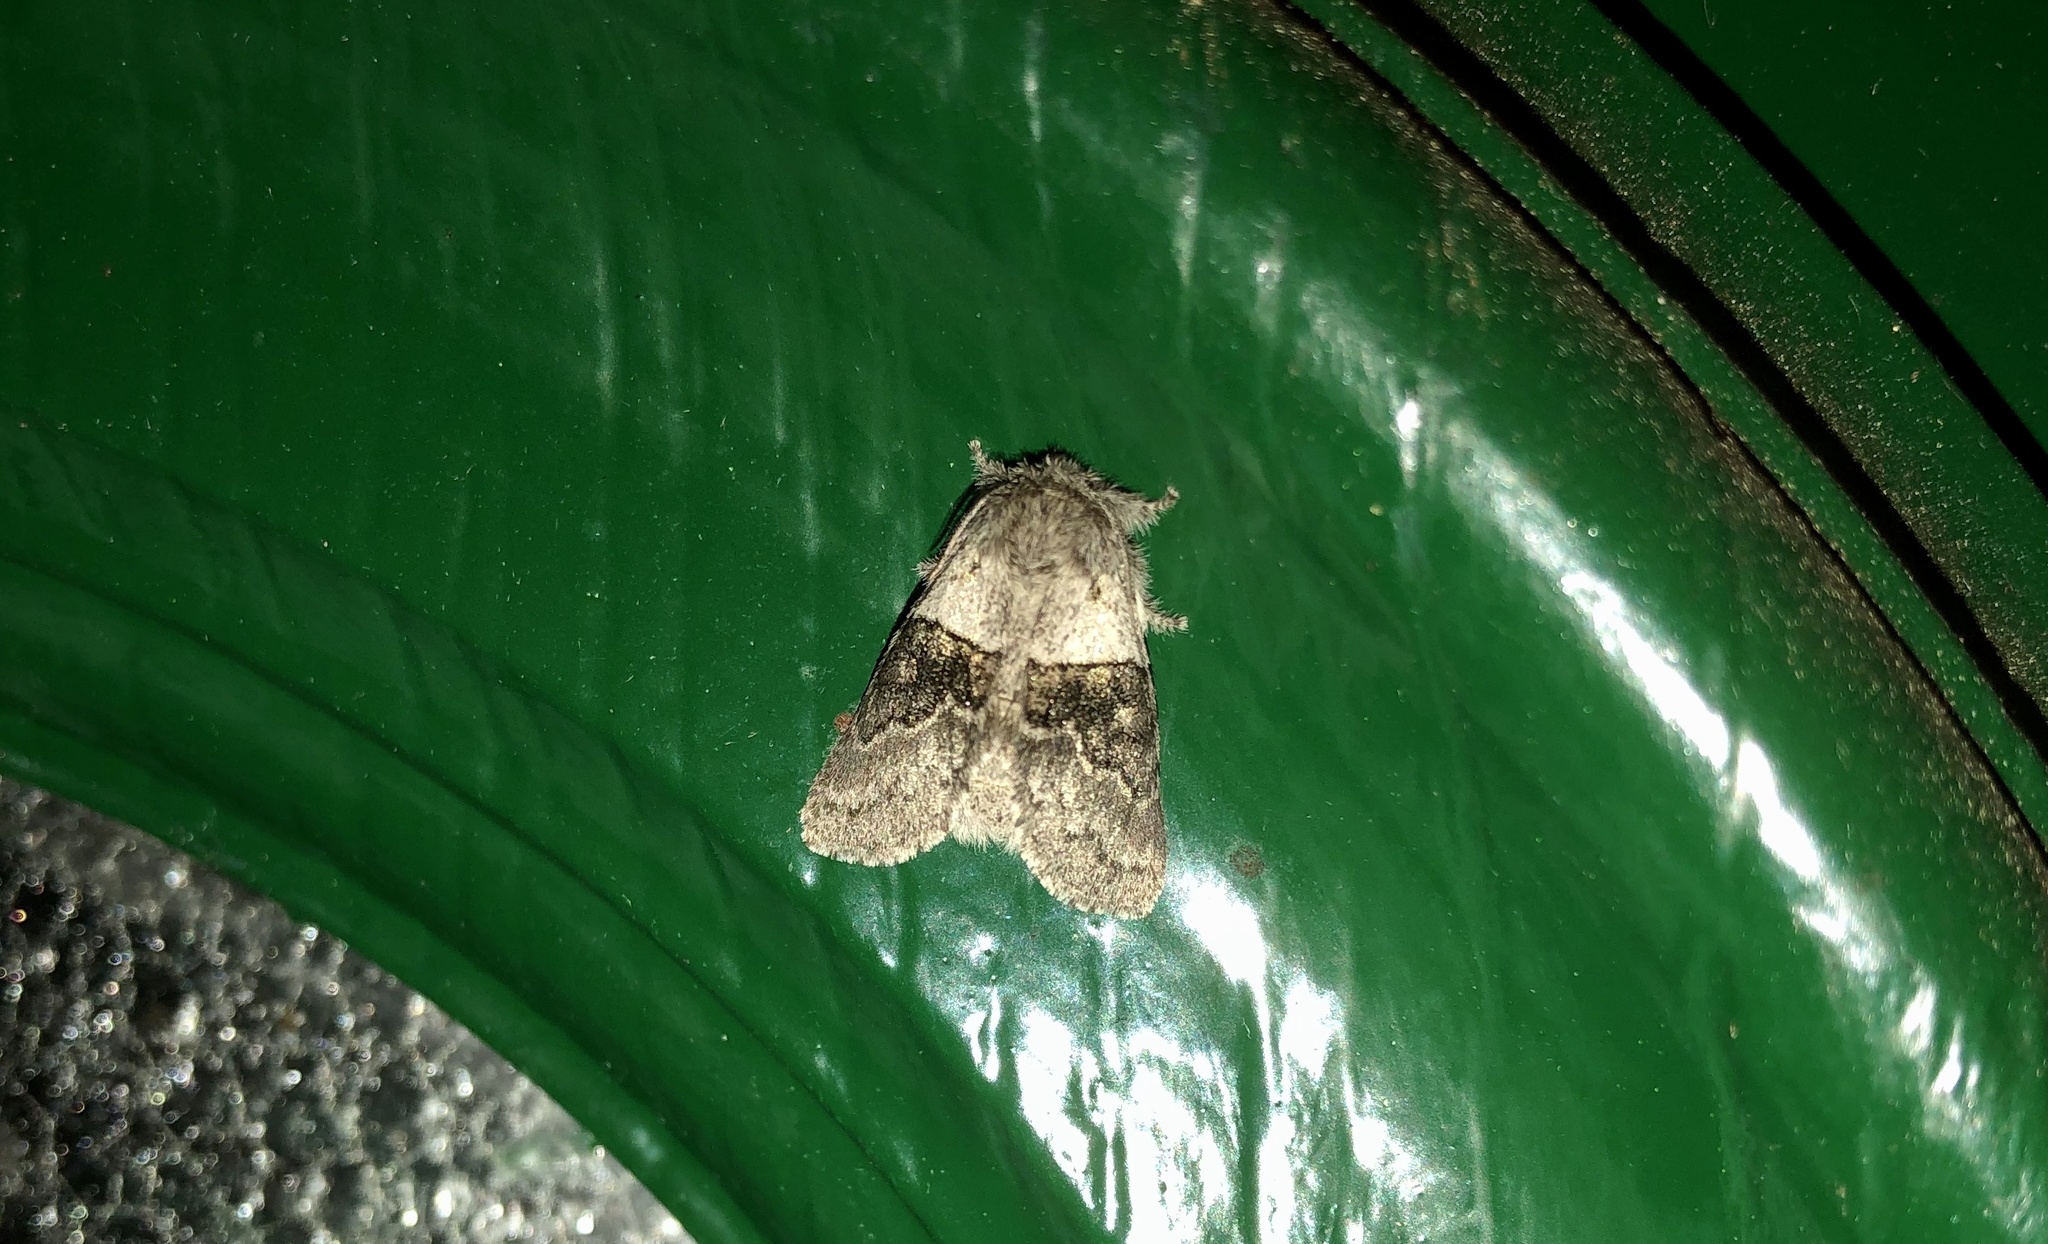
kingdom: Animalia
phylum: Arthropoda
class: Insecta
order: Lepidoptera
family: Notodontidae
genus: Gluphisia
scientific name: Gluphisia septentrionis
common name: Common gluphisia
